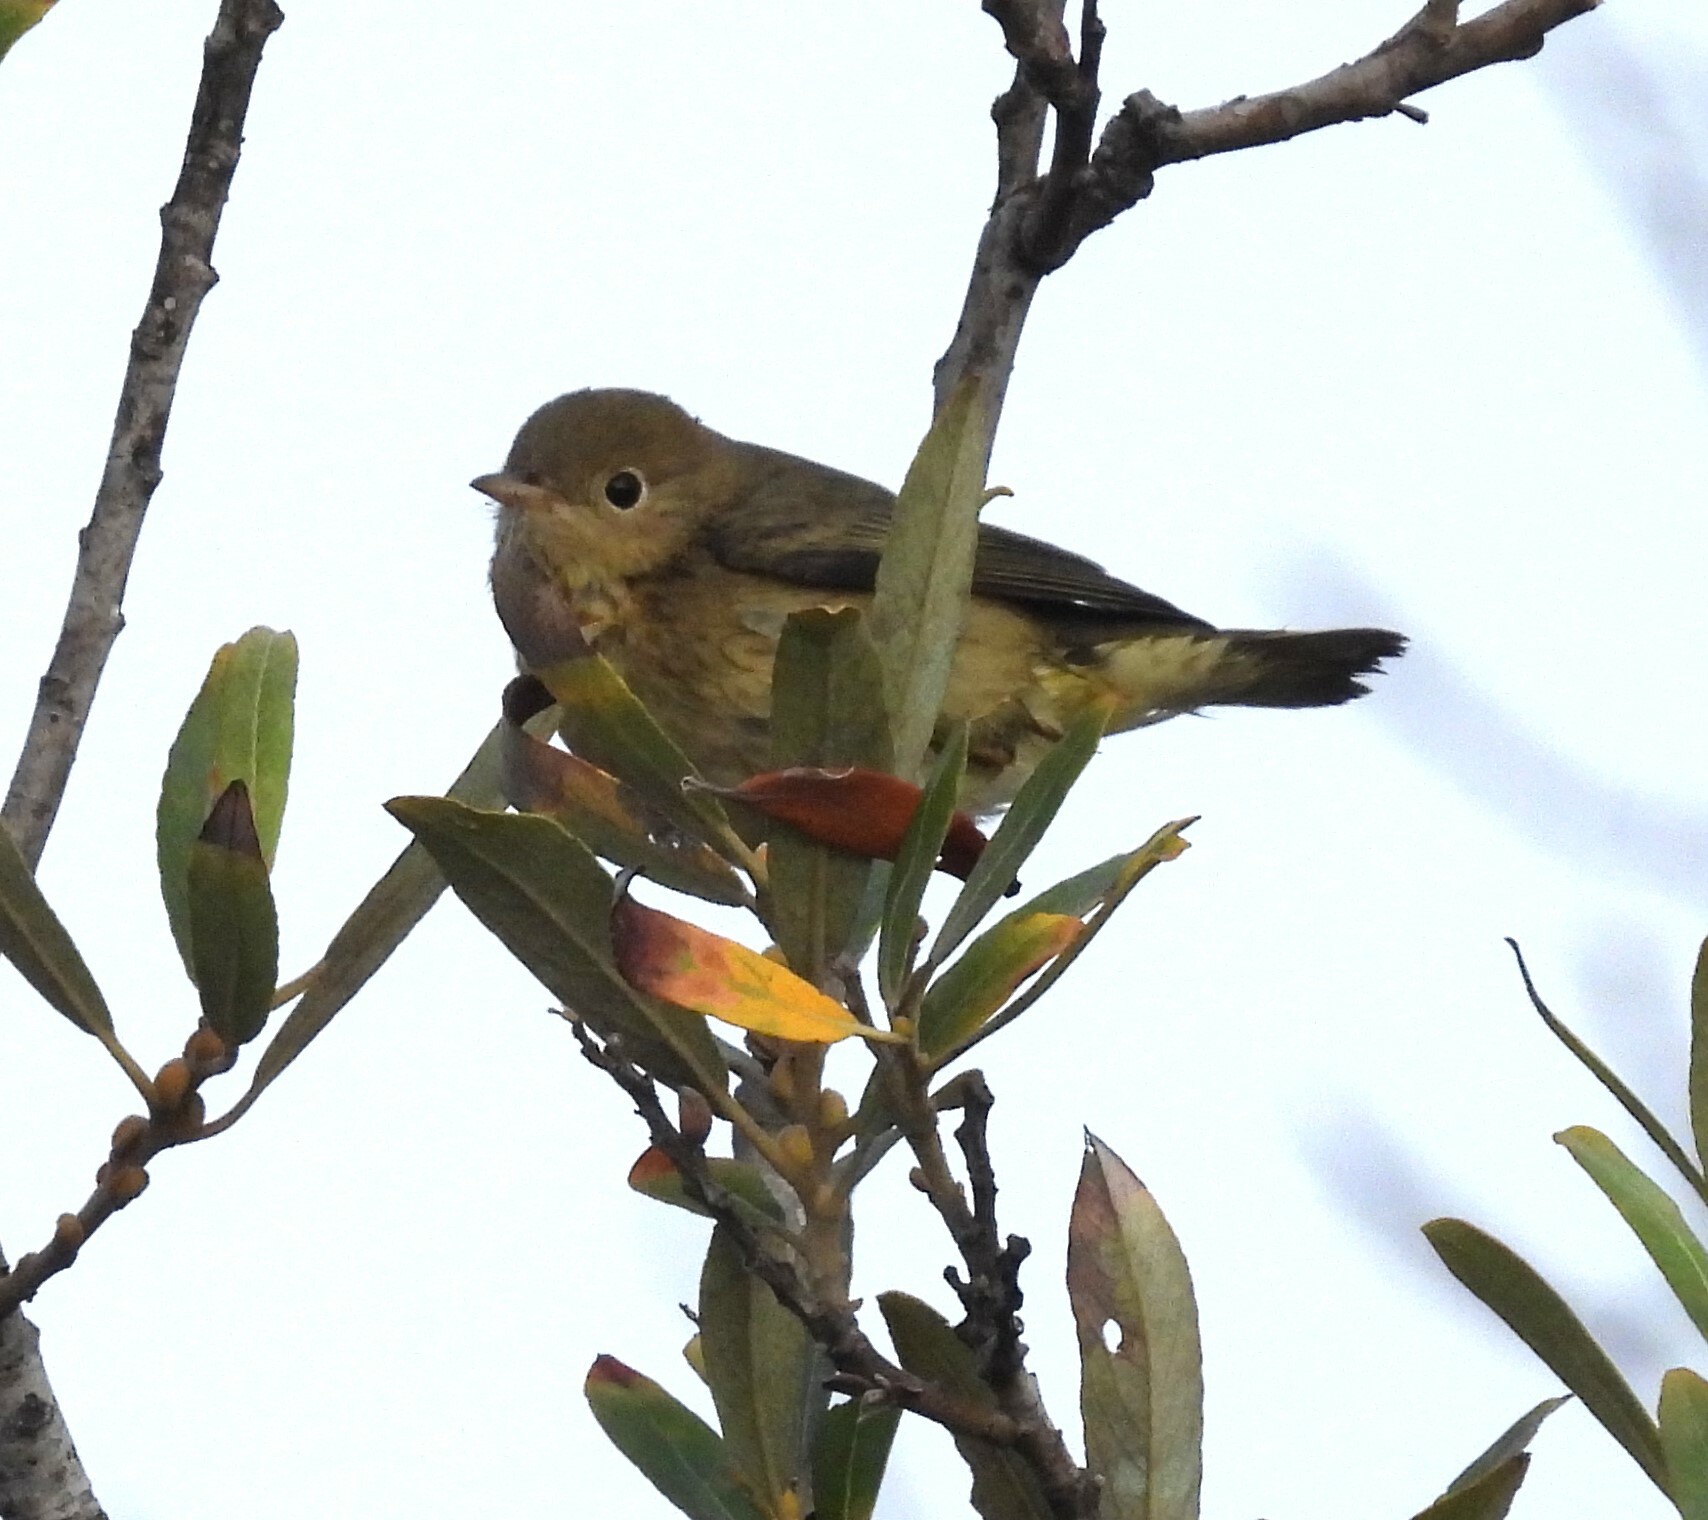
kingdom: Animalia
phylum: Chordata
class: Aves
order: Passeriformes
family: Parulidae
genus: Setophaga
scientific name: Setophaga petechia
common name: Yellow warbler
